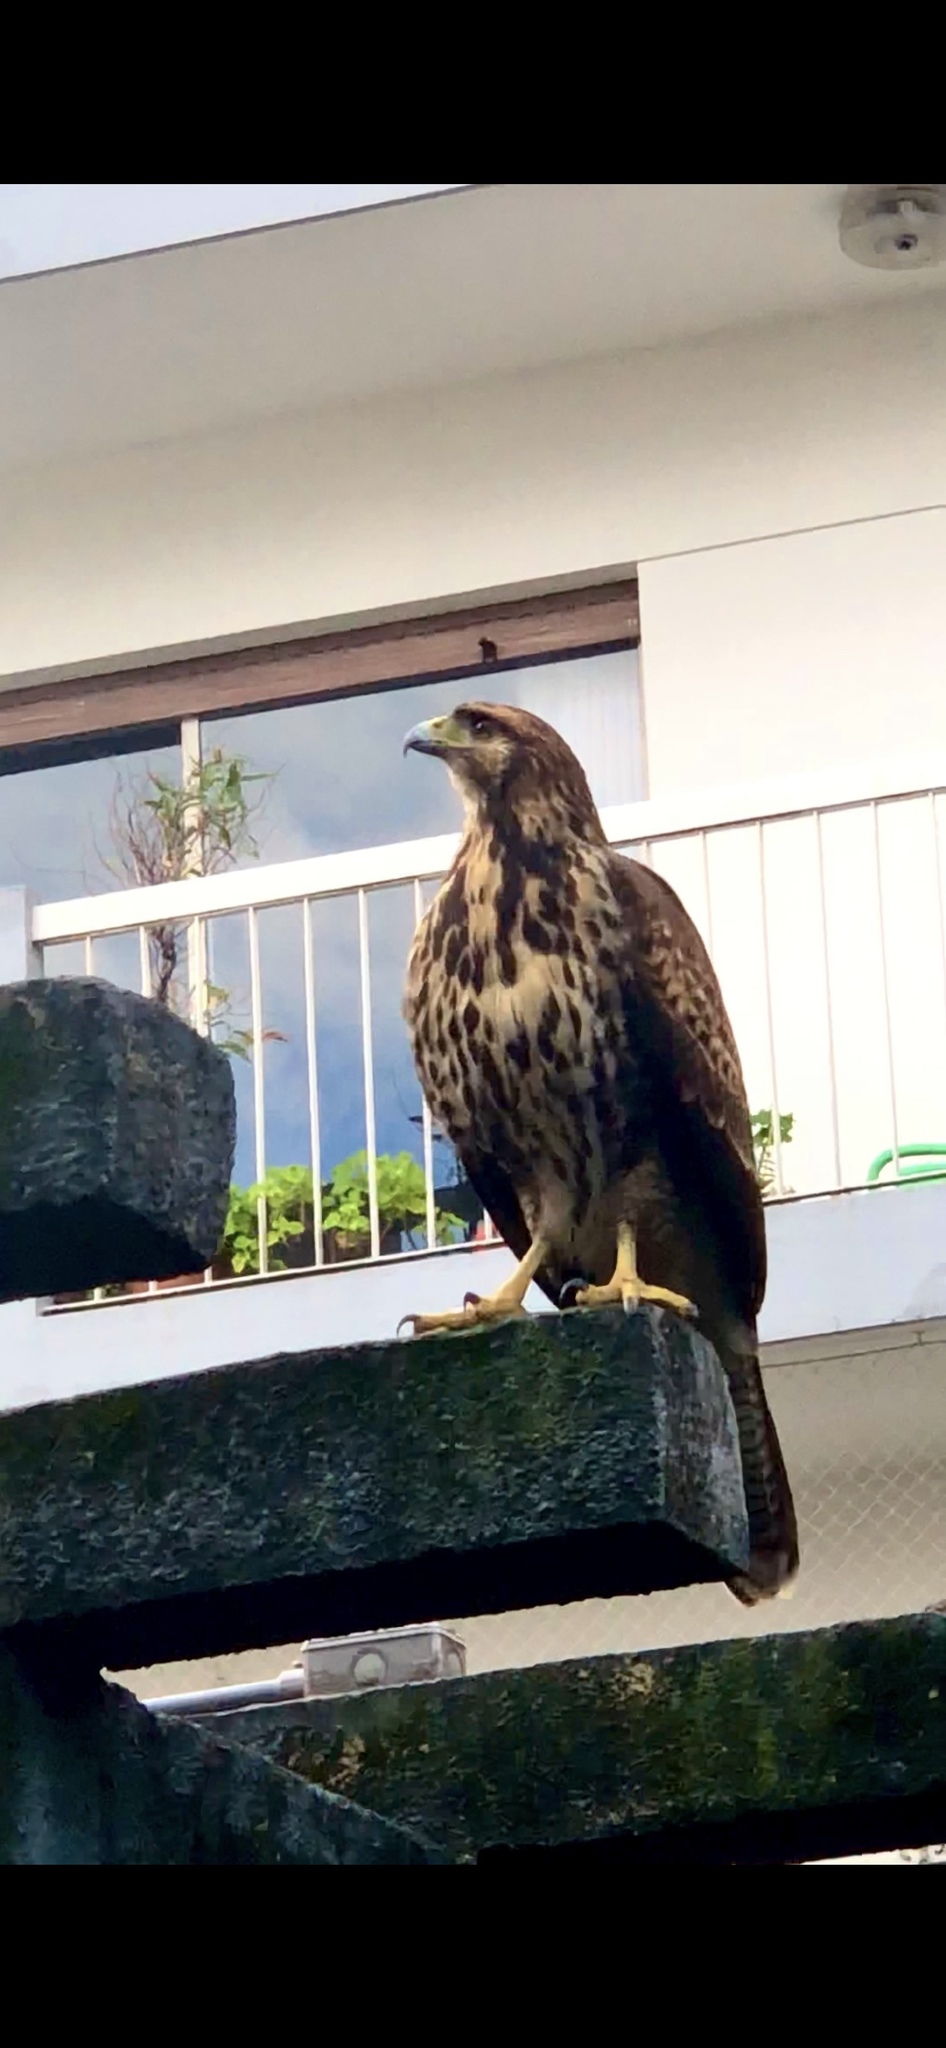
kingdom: Animalia
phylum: Chordata
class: Aves
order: Accipitriformes
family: Accipitridae
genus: Parabuteo
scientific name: Parabuteo unicinctus
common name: Harris's hawk
